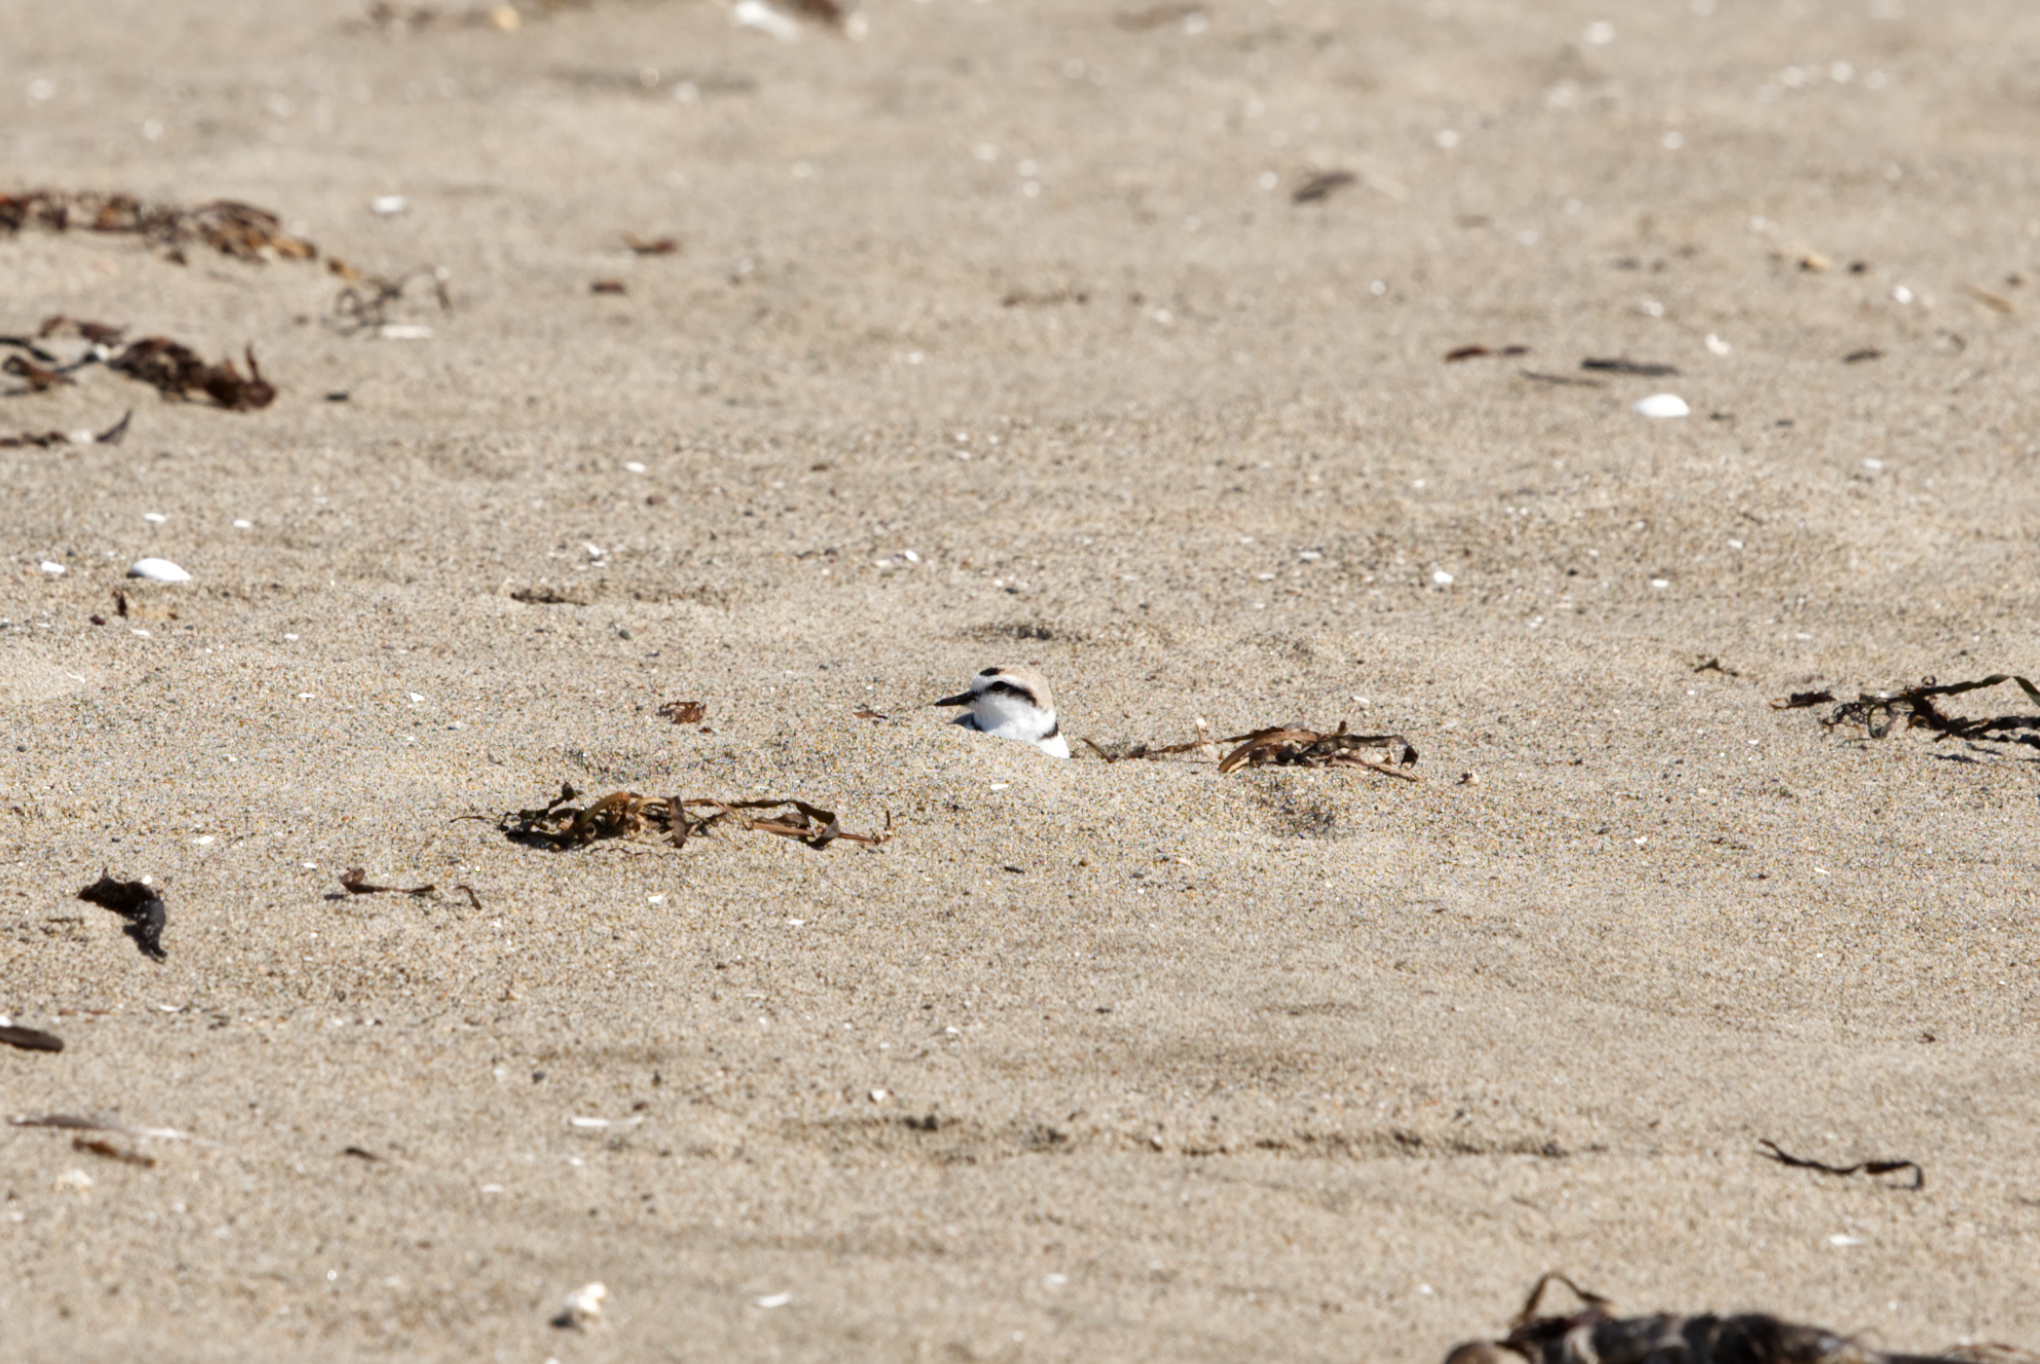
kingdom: Animalia
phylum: Chordata
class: Aves
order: Charadriiformes
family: Charadriidae
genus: Anarhynchus
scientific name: Anarhynchus
